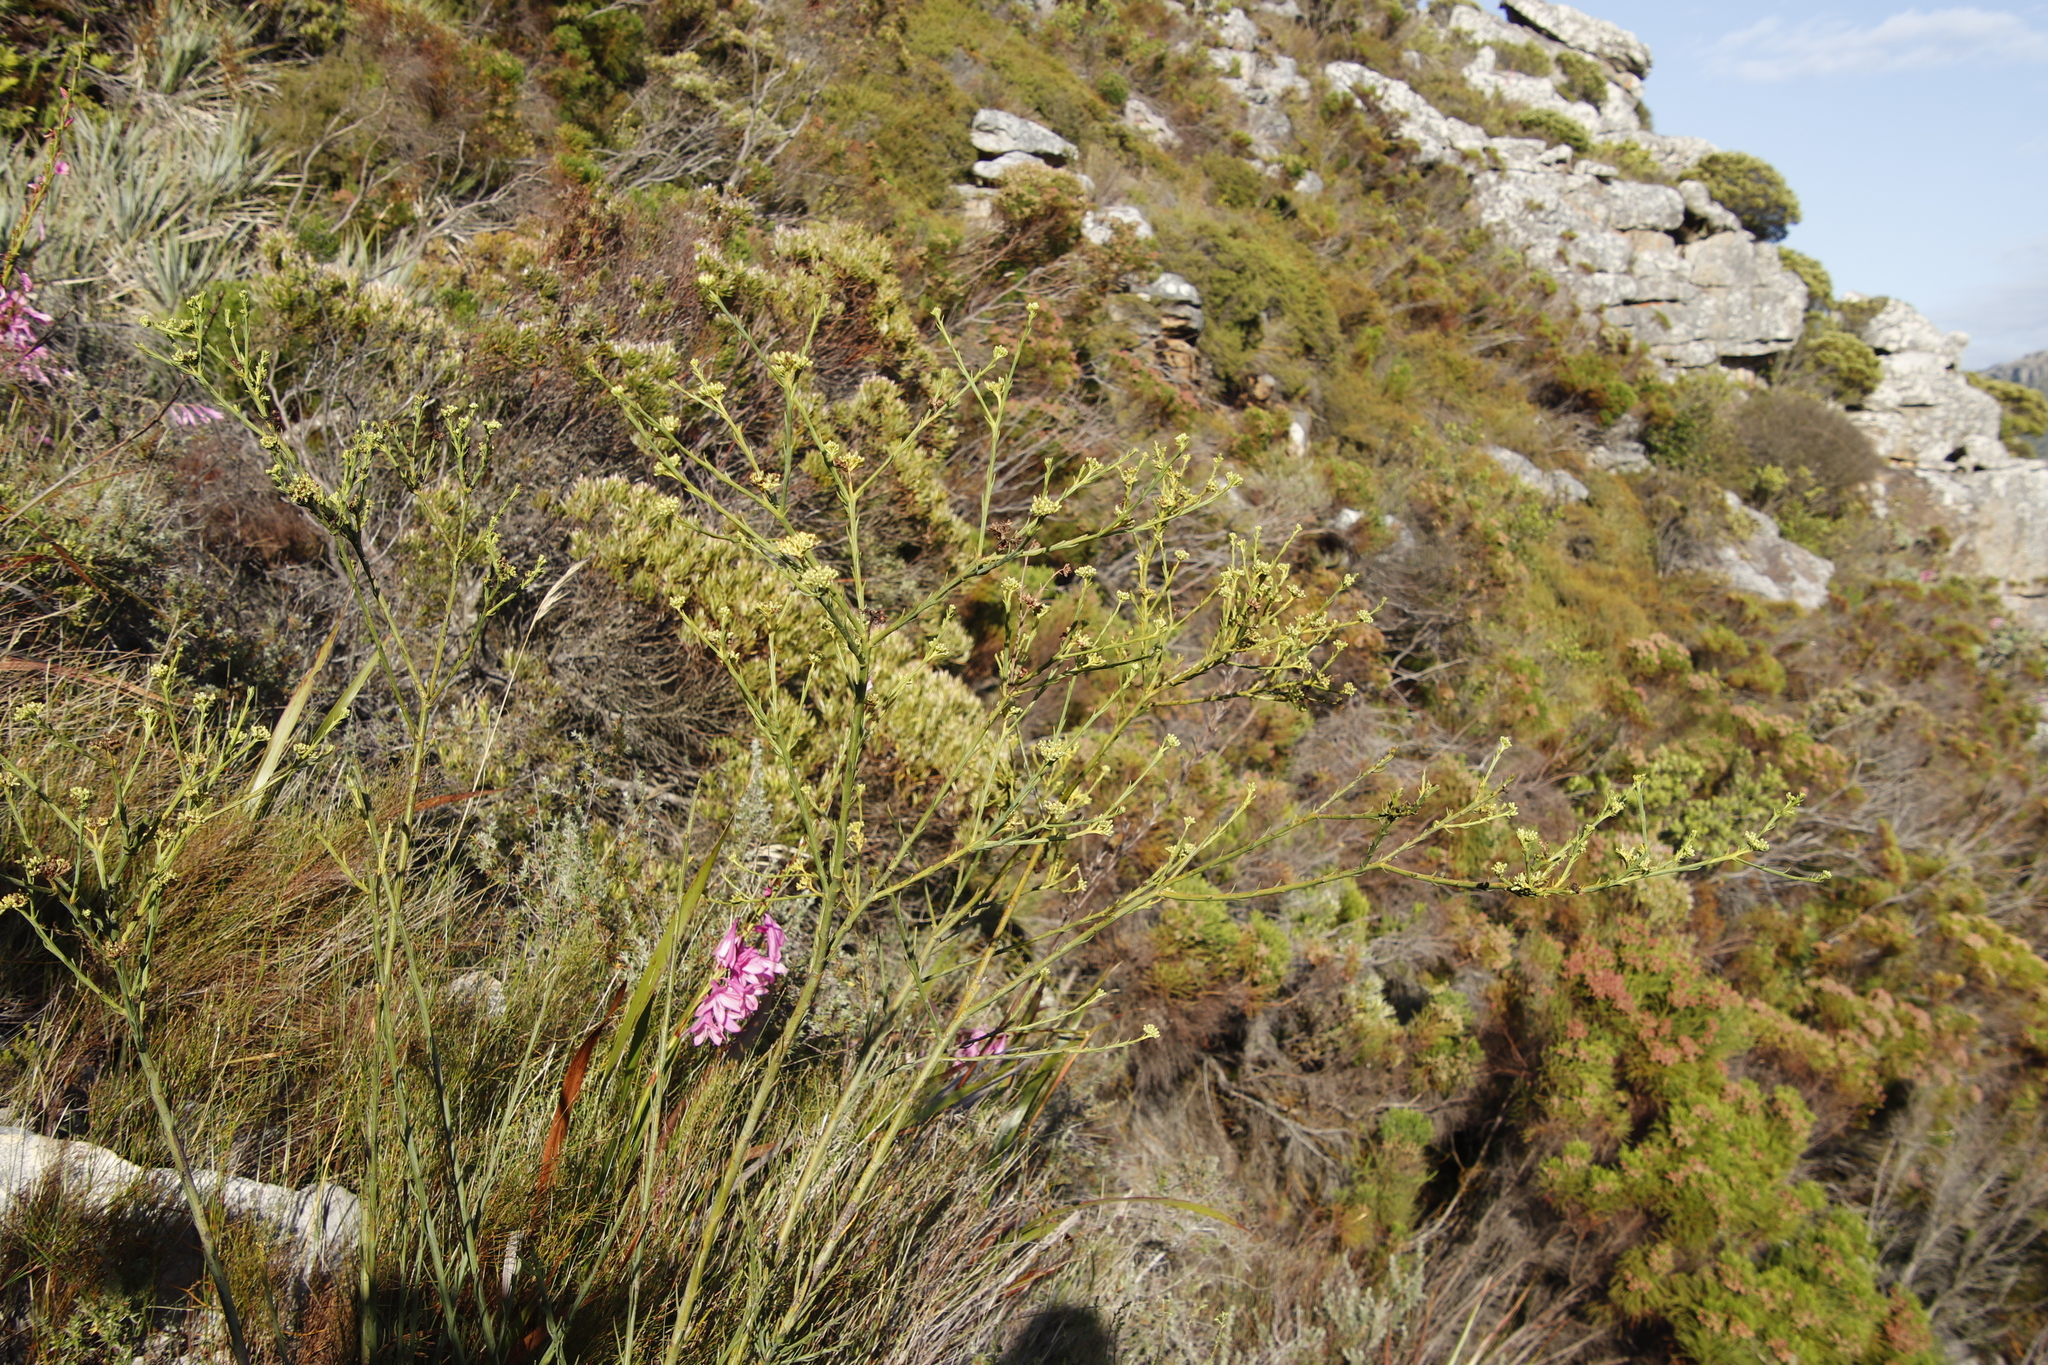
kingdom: Plantae
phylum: Tracheophyta
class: Magnoliopsida
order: Santalales
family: Thesiaceae
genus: Thesium
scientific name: Thesium strictum
